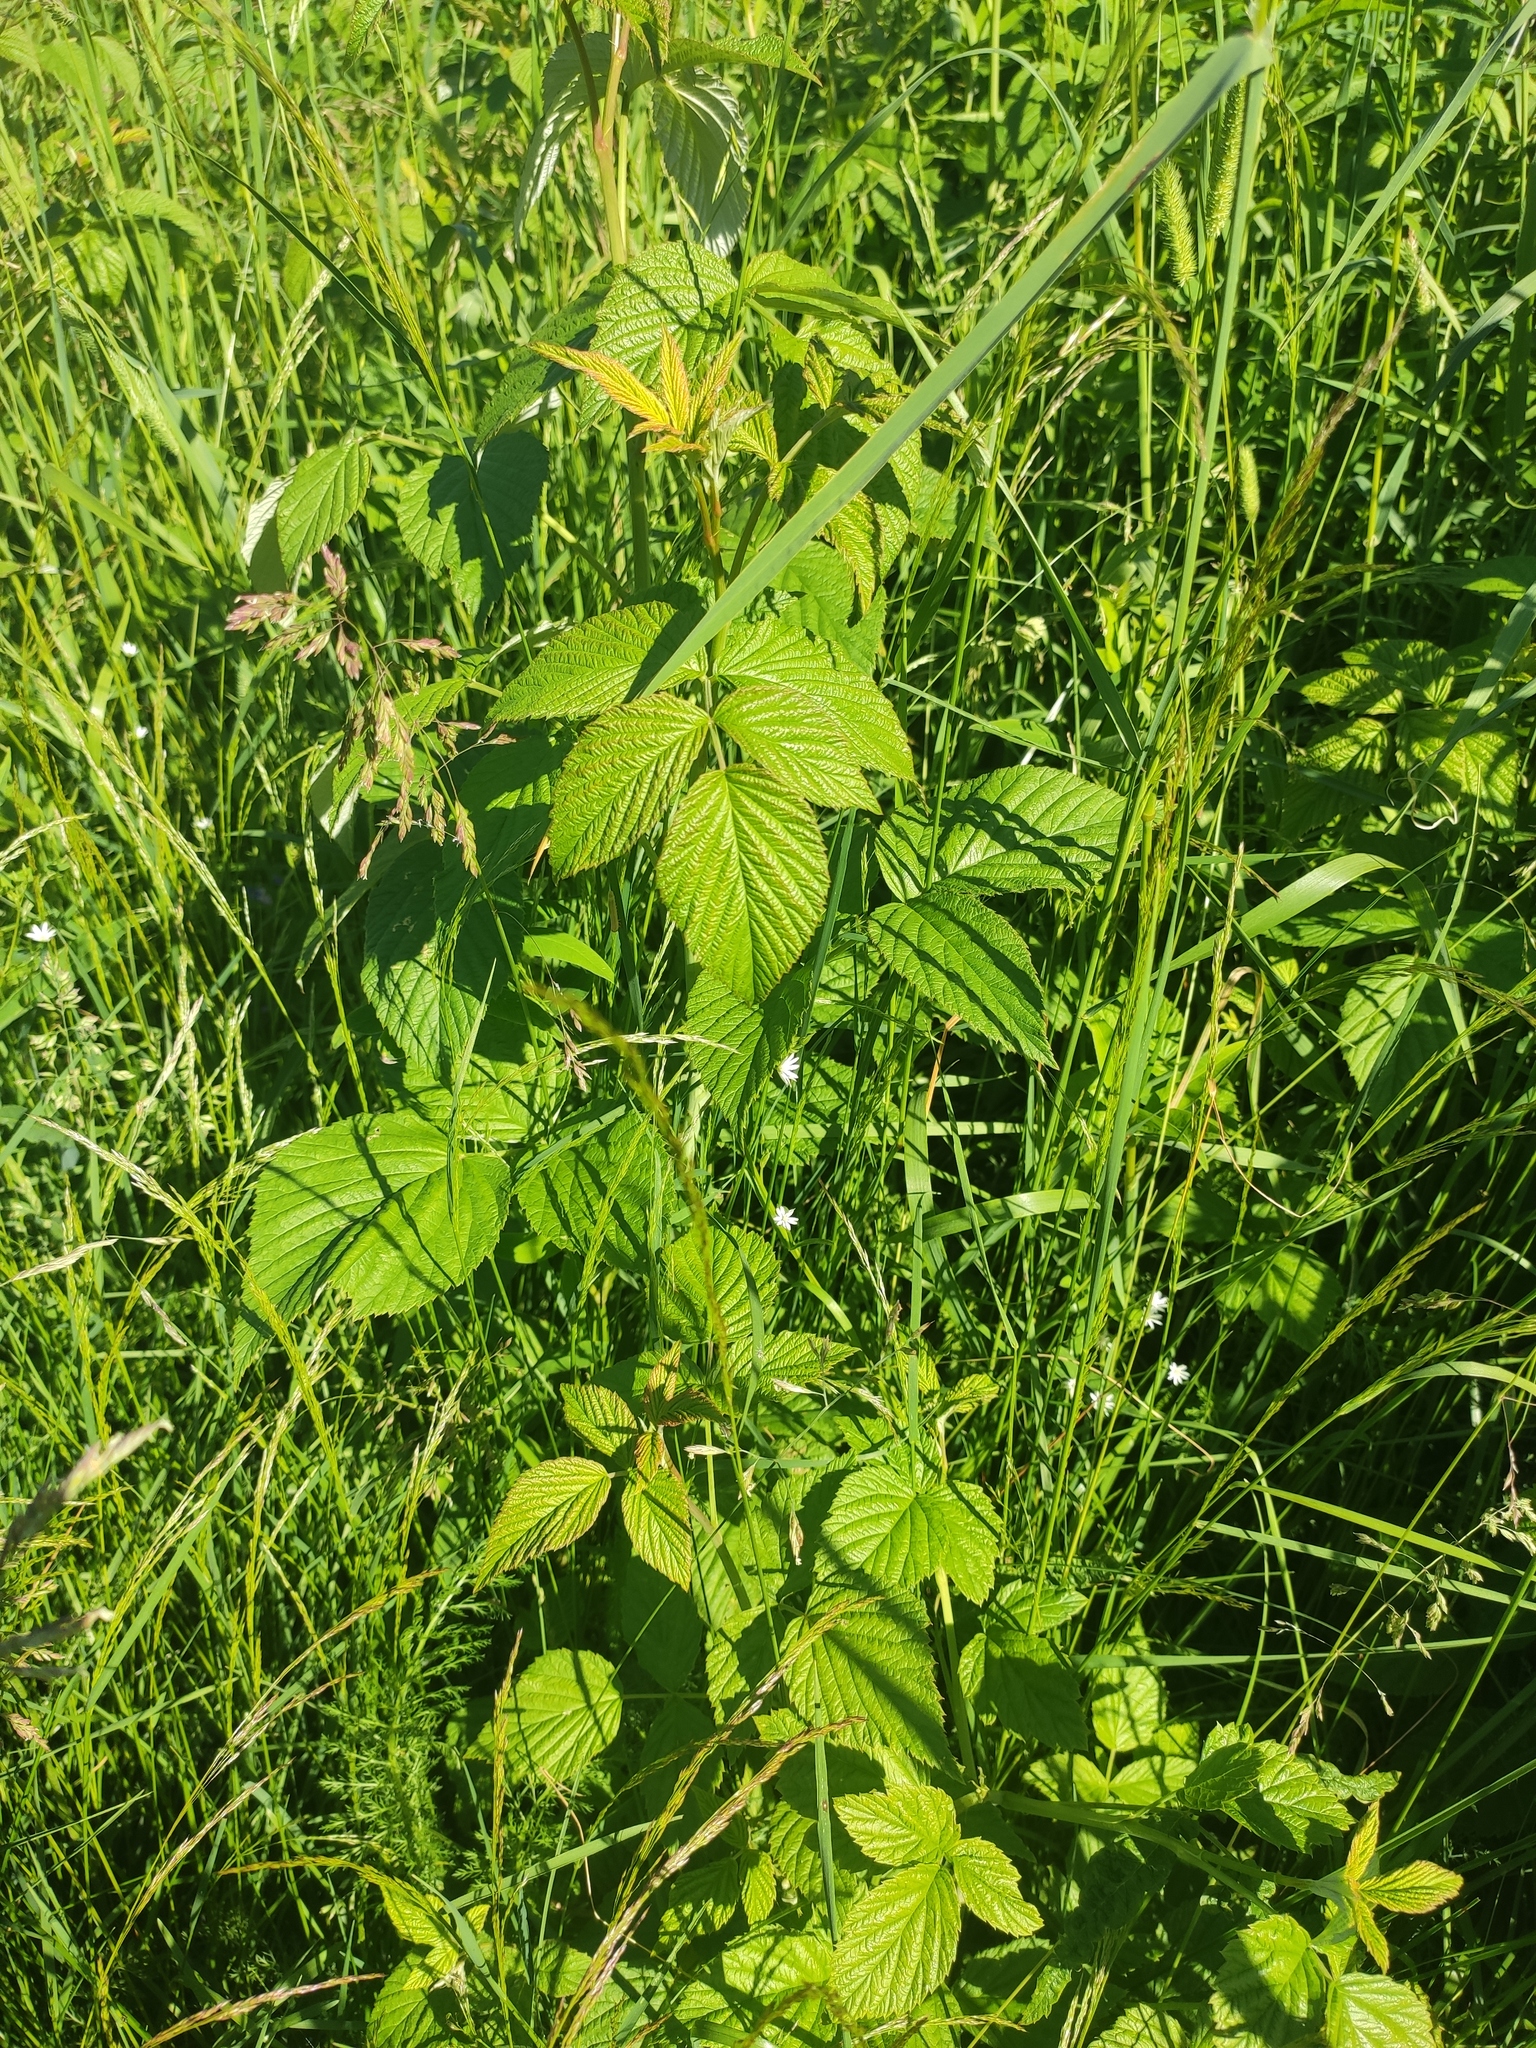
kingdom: Plantae
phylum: Tracheophyta
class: Magnoliopsida
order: Rosales
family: Rosaceae
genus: Rubus
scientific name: Rubus idaeus
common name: Raspberry
